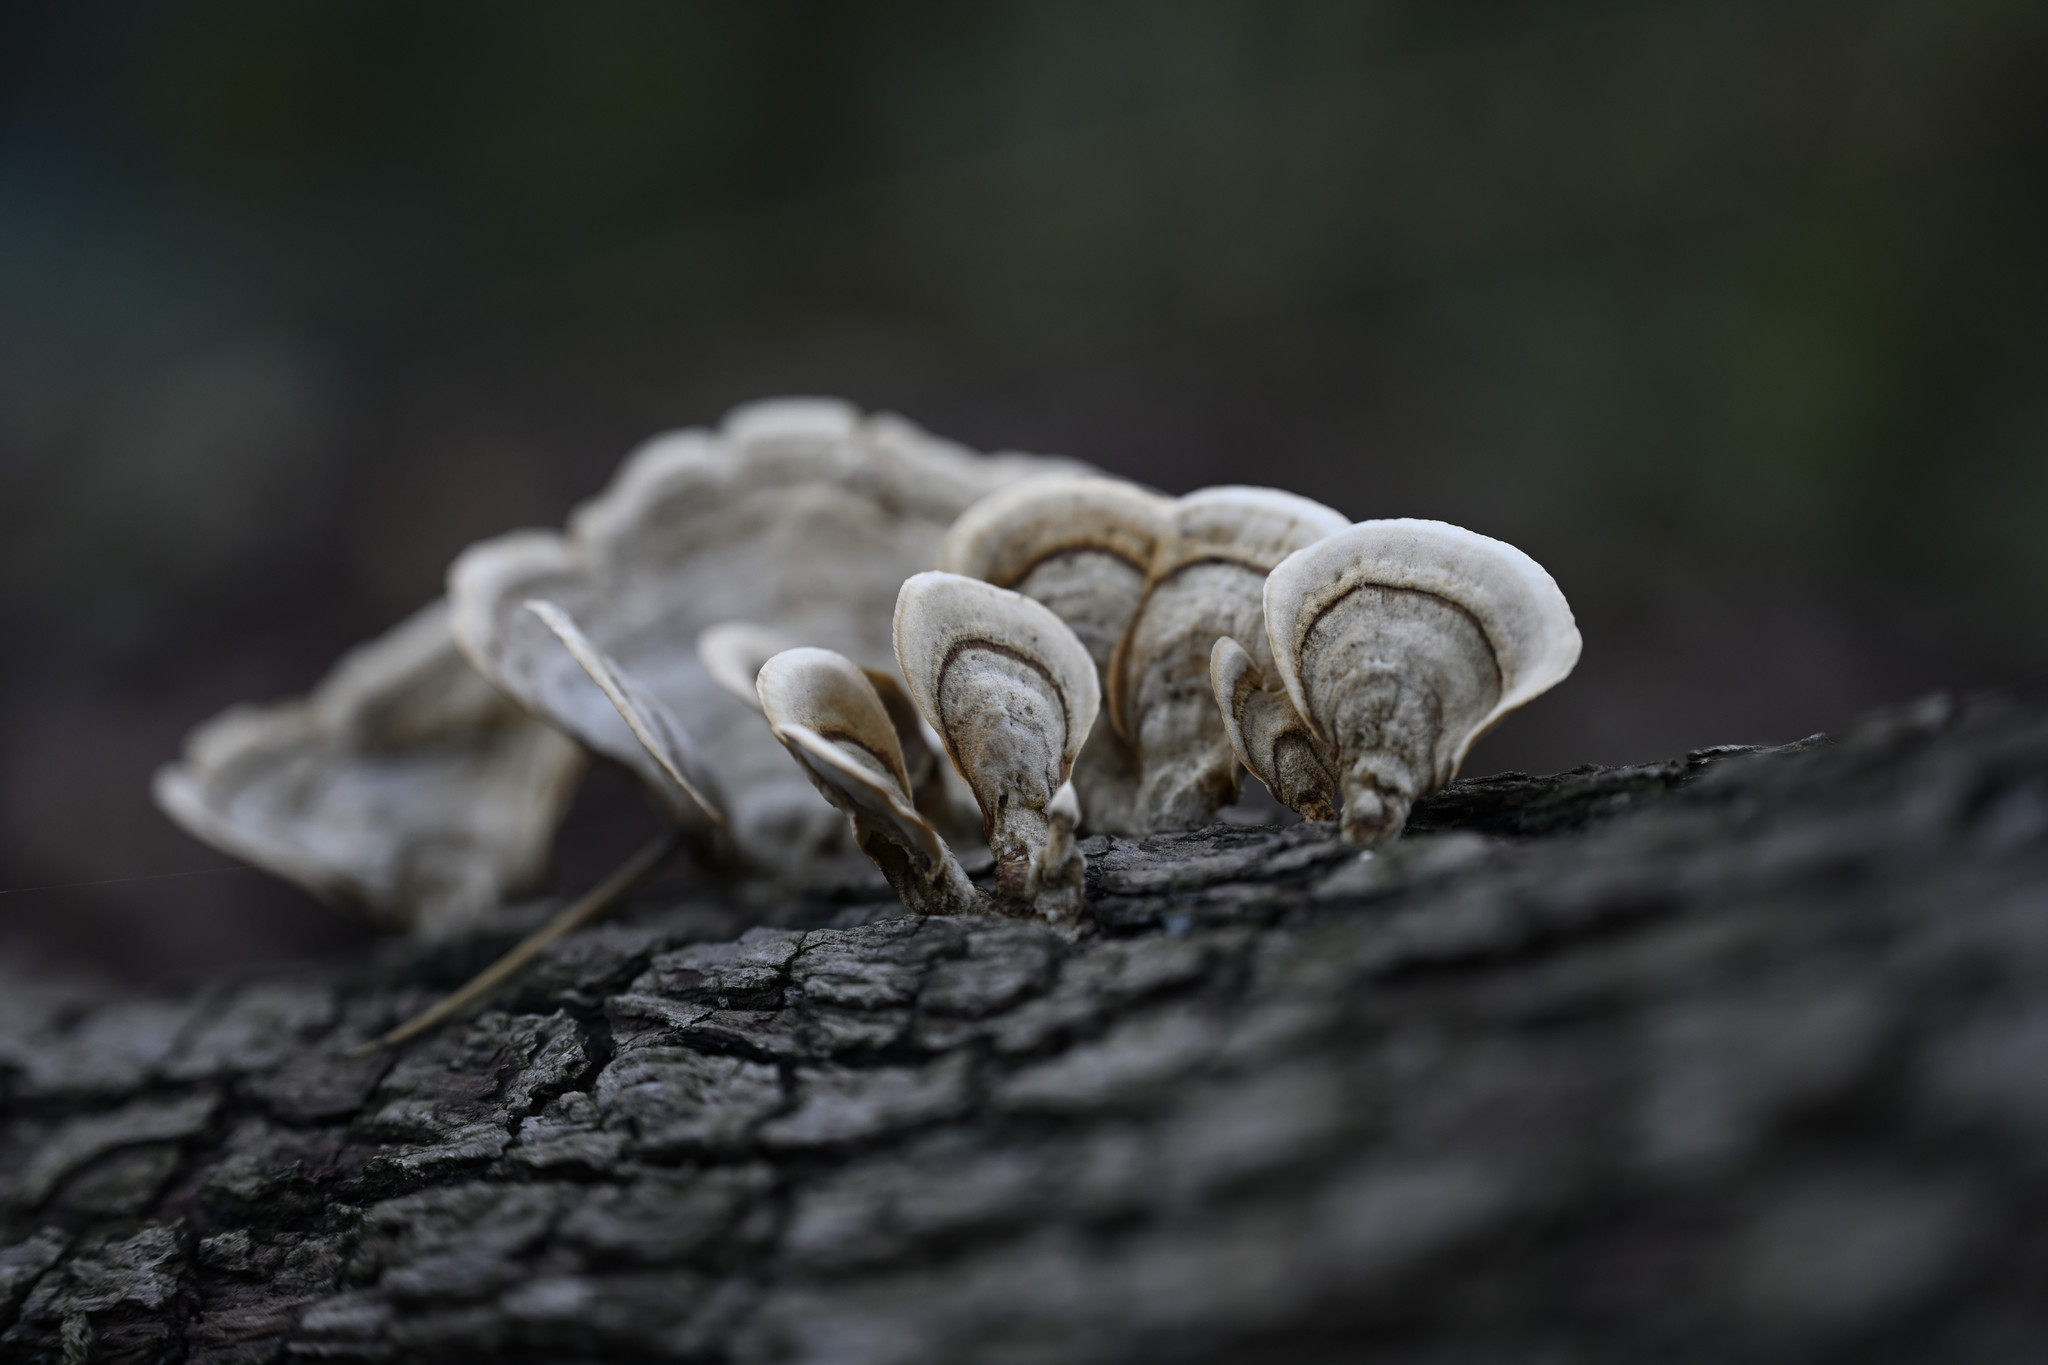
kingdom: Fungi
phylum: Basidiomycota
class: Agaricomycetes
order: Russulales
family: Stereaceae
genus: Stereum
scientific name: Stereum ostrea
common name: False turkeytail
